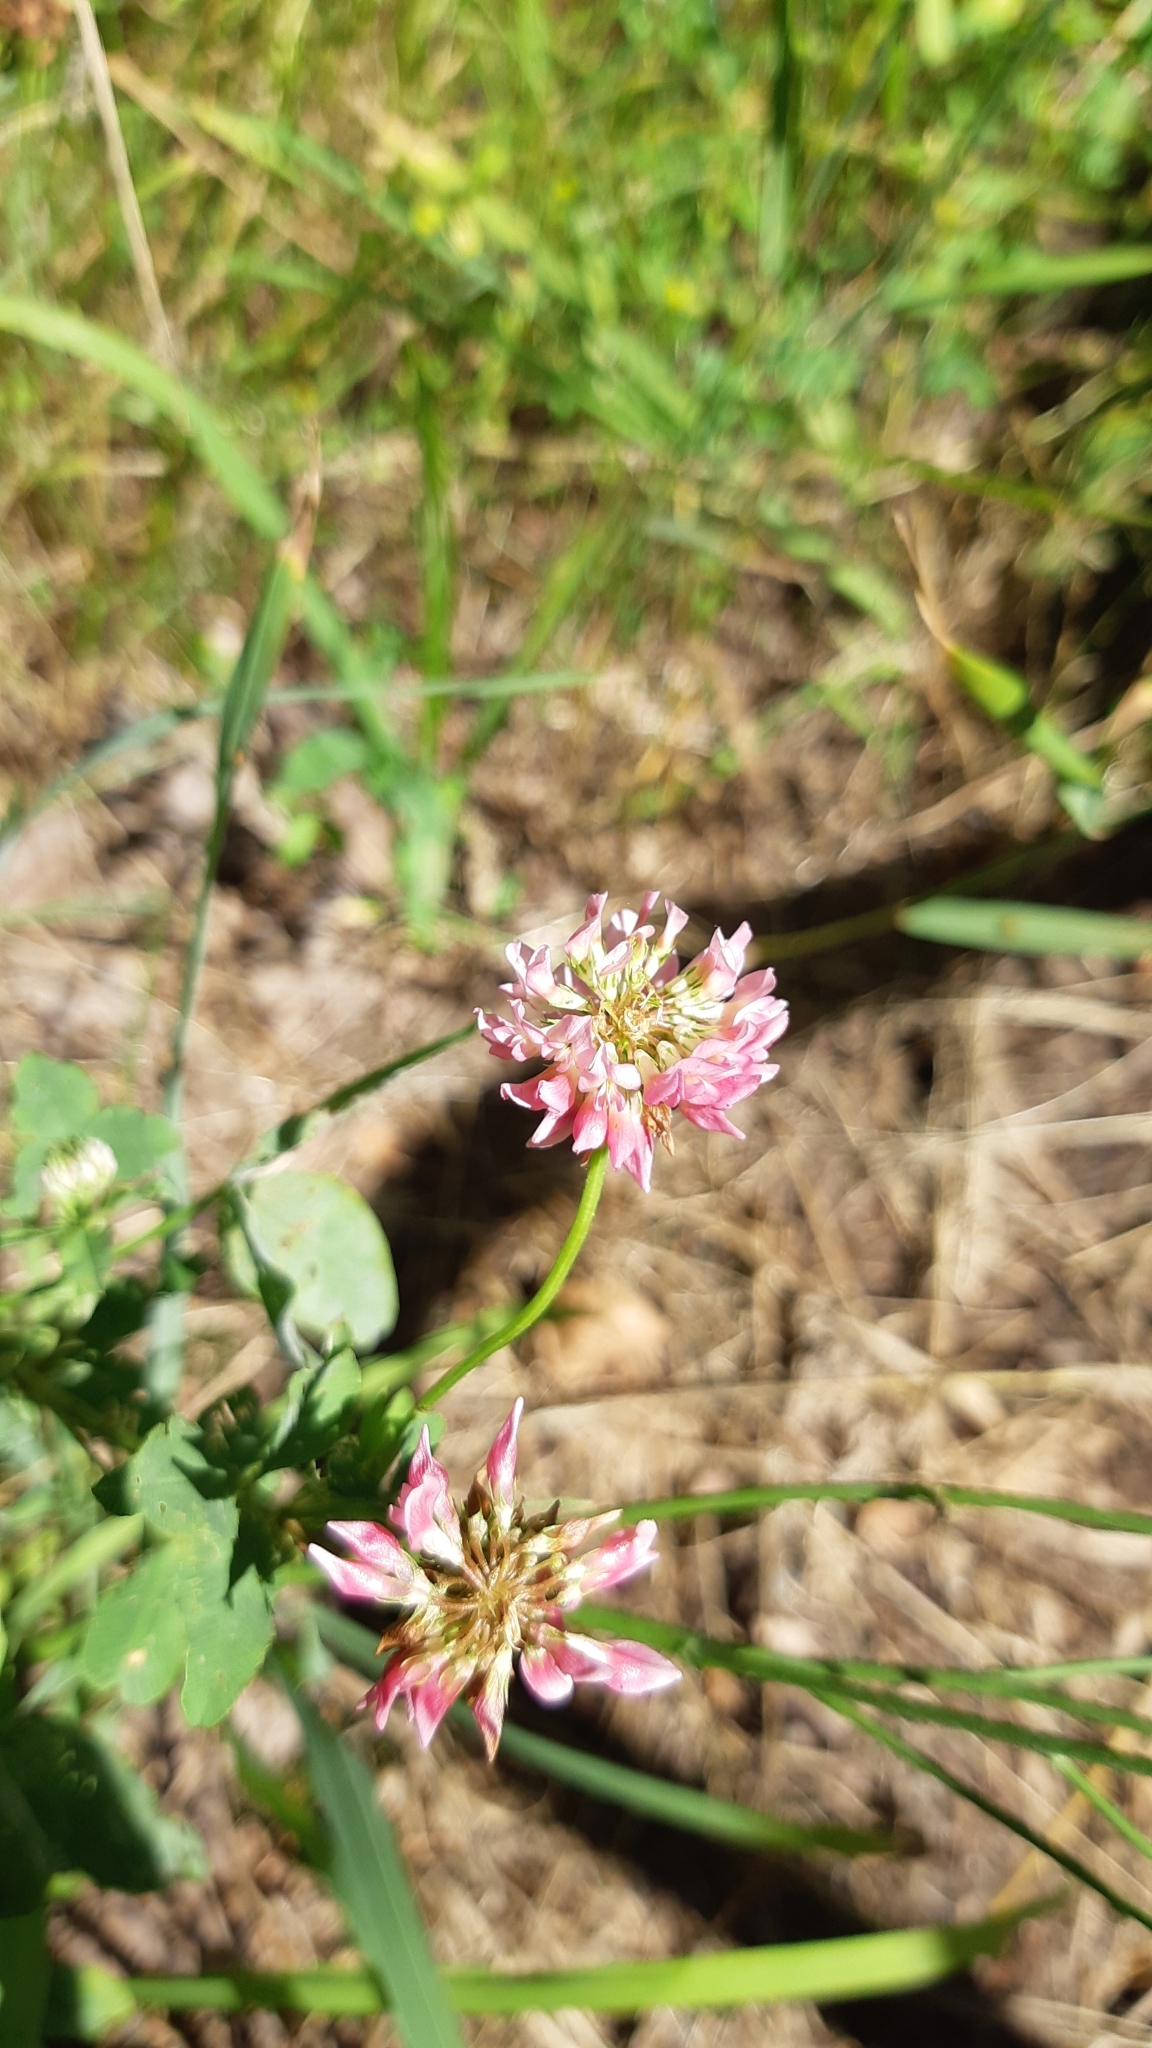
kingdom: Plantae
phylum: Tracheophyta
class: Magnoliopsida
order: Fabales
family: Fabaceae
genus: Trifolium
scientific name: Trifolium hybridum
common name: Alsike clover
